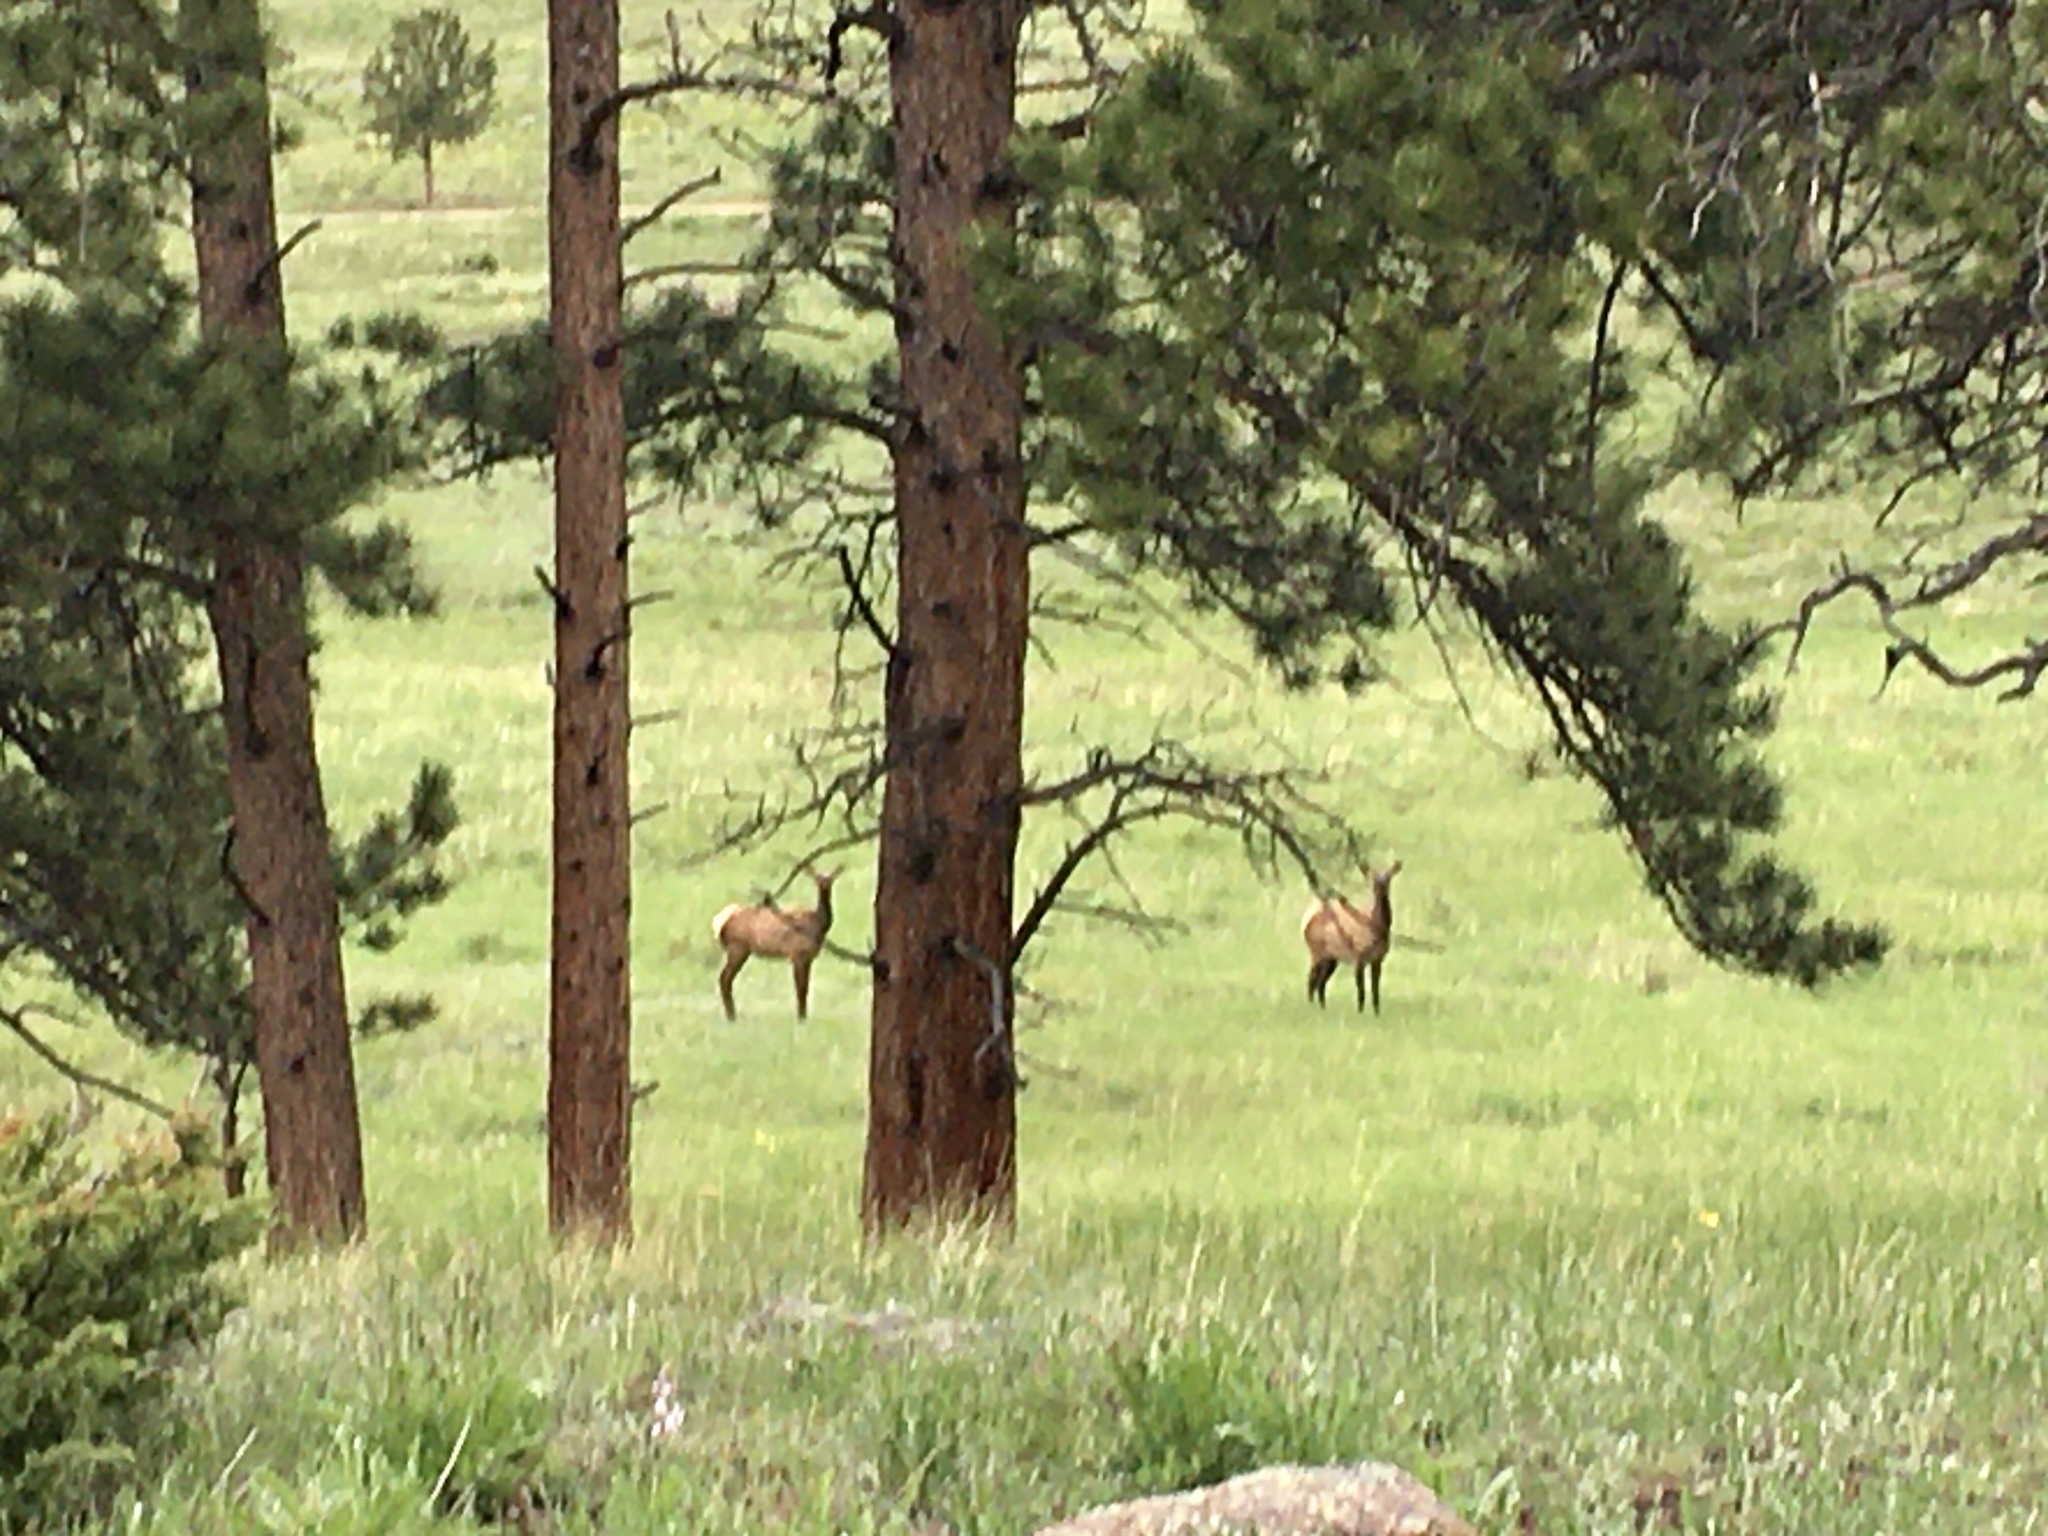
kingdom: Animalia
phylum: Chordata
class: Mammalia
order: Artiodactyla
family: Cervidae
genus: Cervus
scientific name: Cervus elaphus
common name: Red deer
